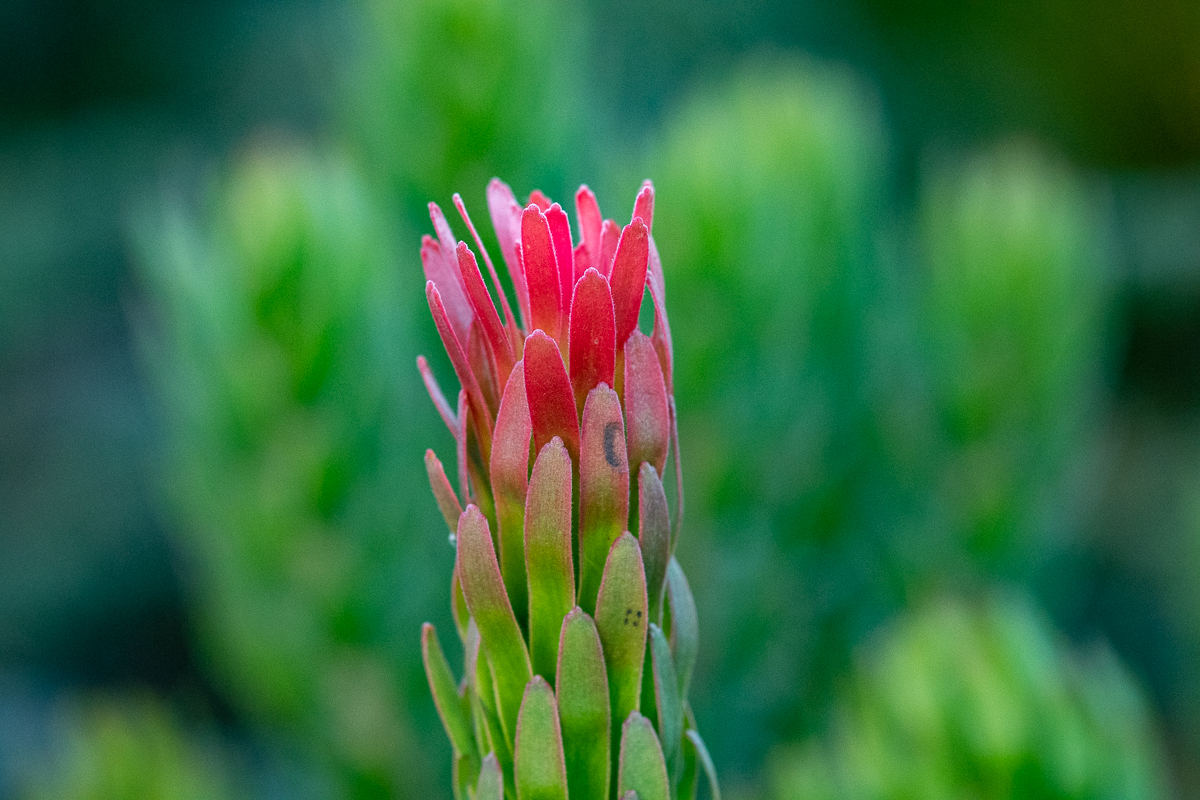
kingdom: Plantae
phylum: Tracheophyta
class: Magnoliopsida
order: Proteales
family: Proteaceae
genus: Mimetes
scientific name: Mimetes cucullatus
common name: Common pagoda
